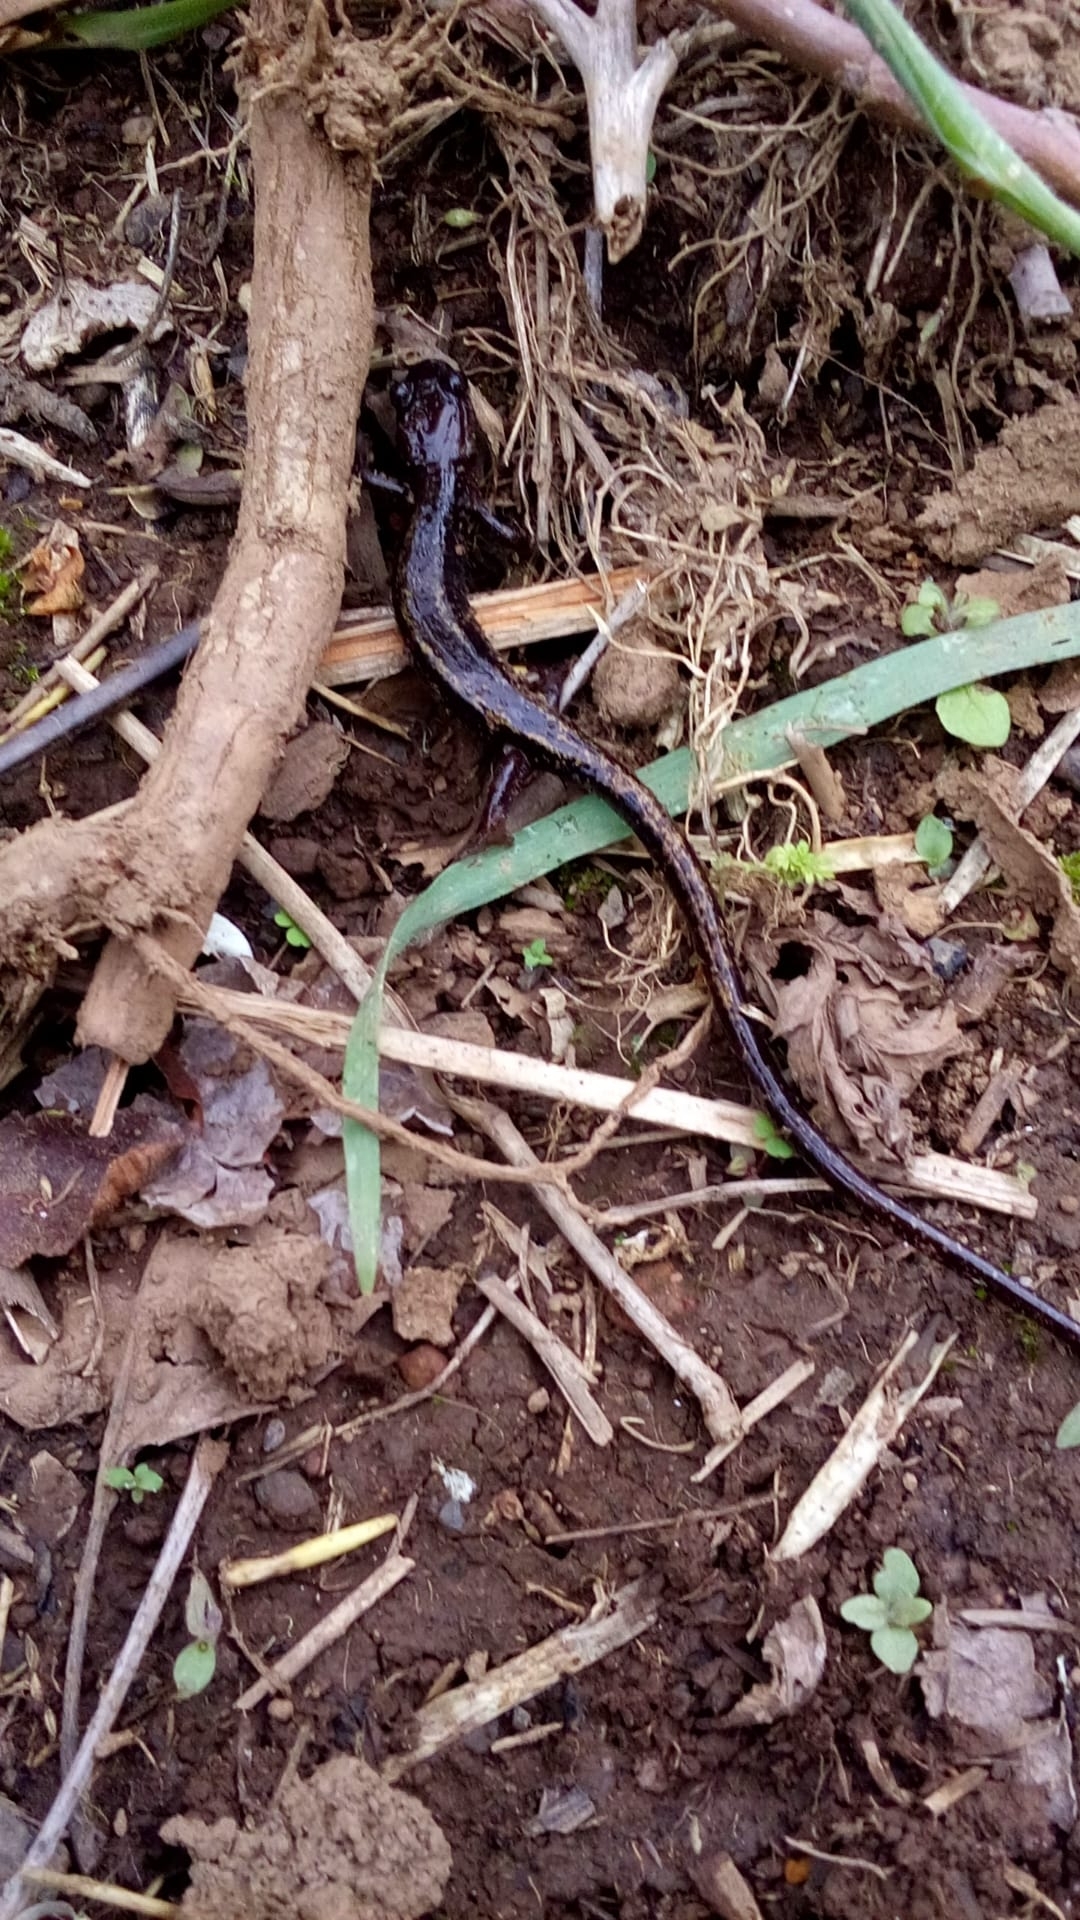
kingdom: Animalia
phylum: Chordata
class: Amphibia
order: Caudata
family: Salamandridae
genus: Chioglossa
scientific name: Chioglossa lusitanica
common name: Gold-striped salamander
